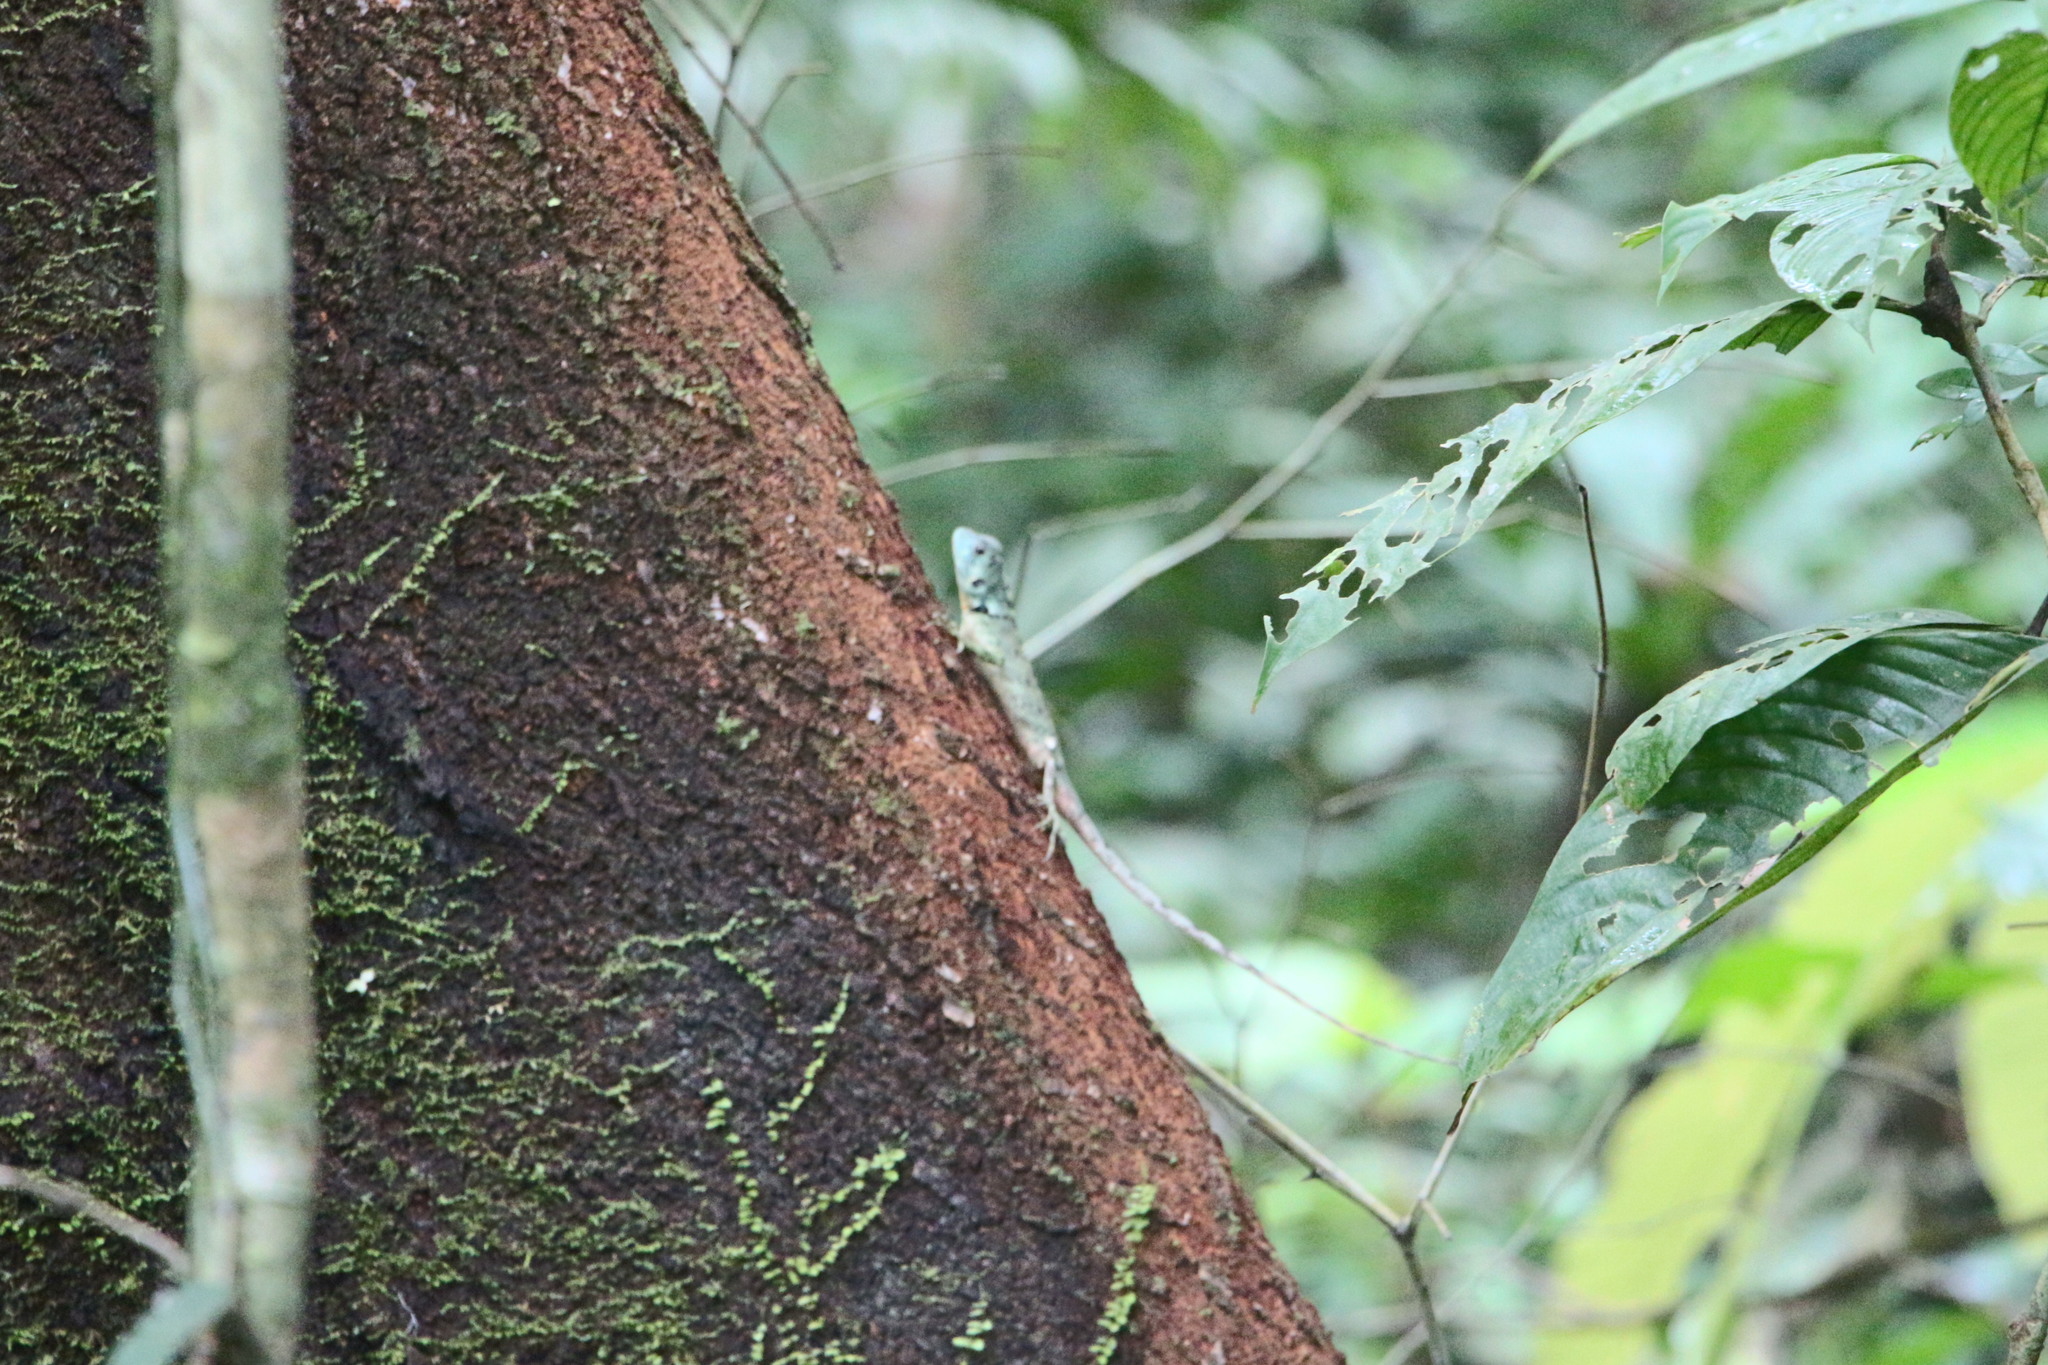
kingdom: Animalia
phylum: Chordata
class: Squamata
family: Tropiduridae
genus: Plica
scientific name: Plica umbra
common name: Harlequin racerunner
